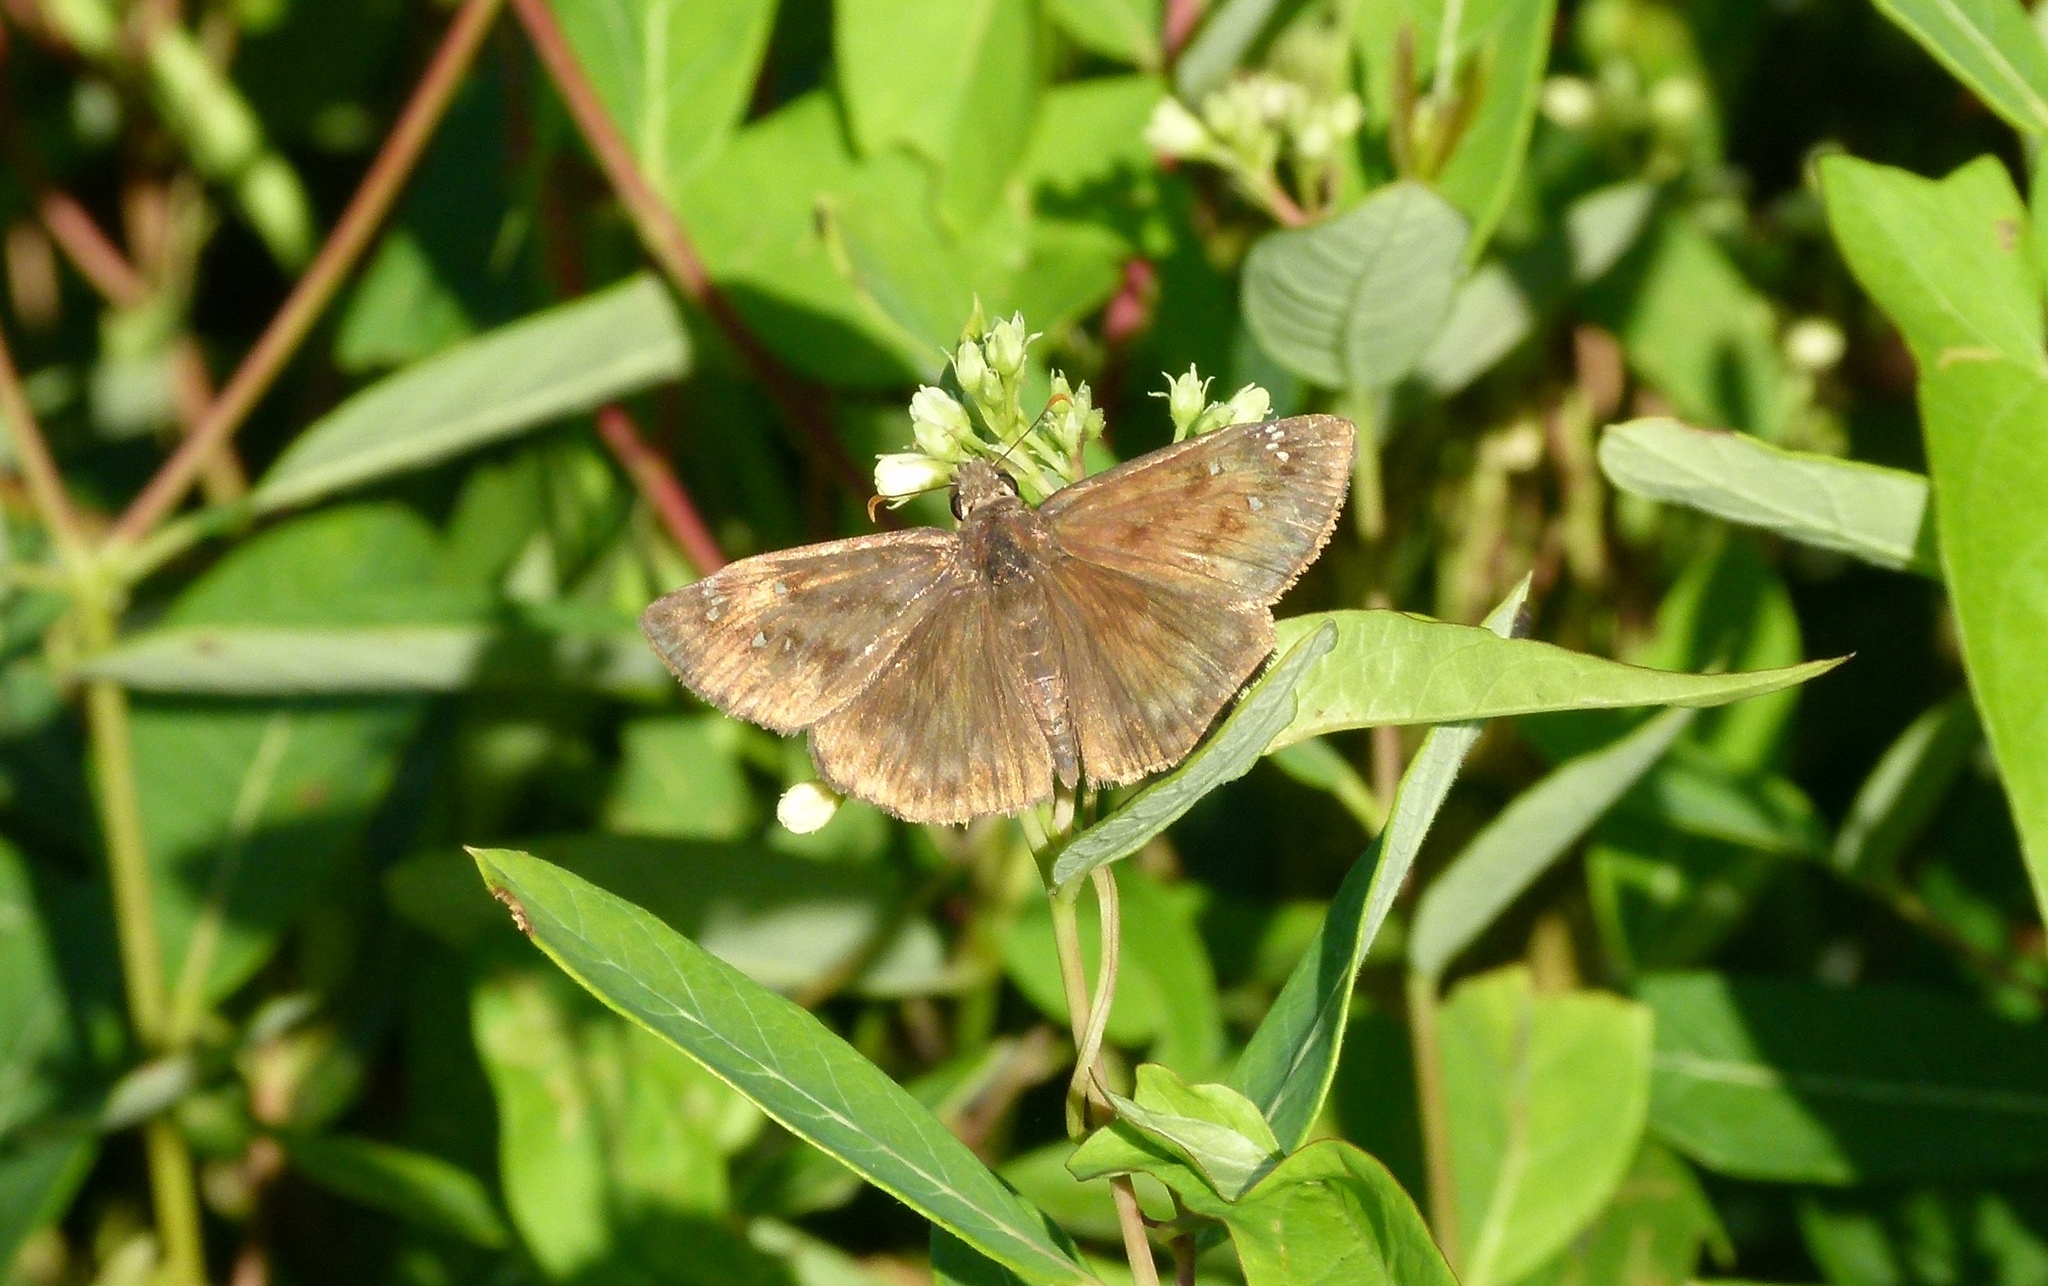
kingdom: Animalia
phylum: Arthropoda
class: Insecta
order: Lepidoptera
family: Hesperiidae
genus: Erynnis
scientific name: Erynnis horatius
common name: Horace's duskywing
